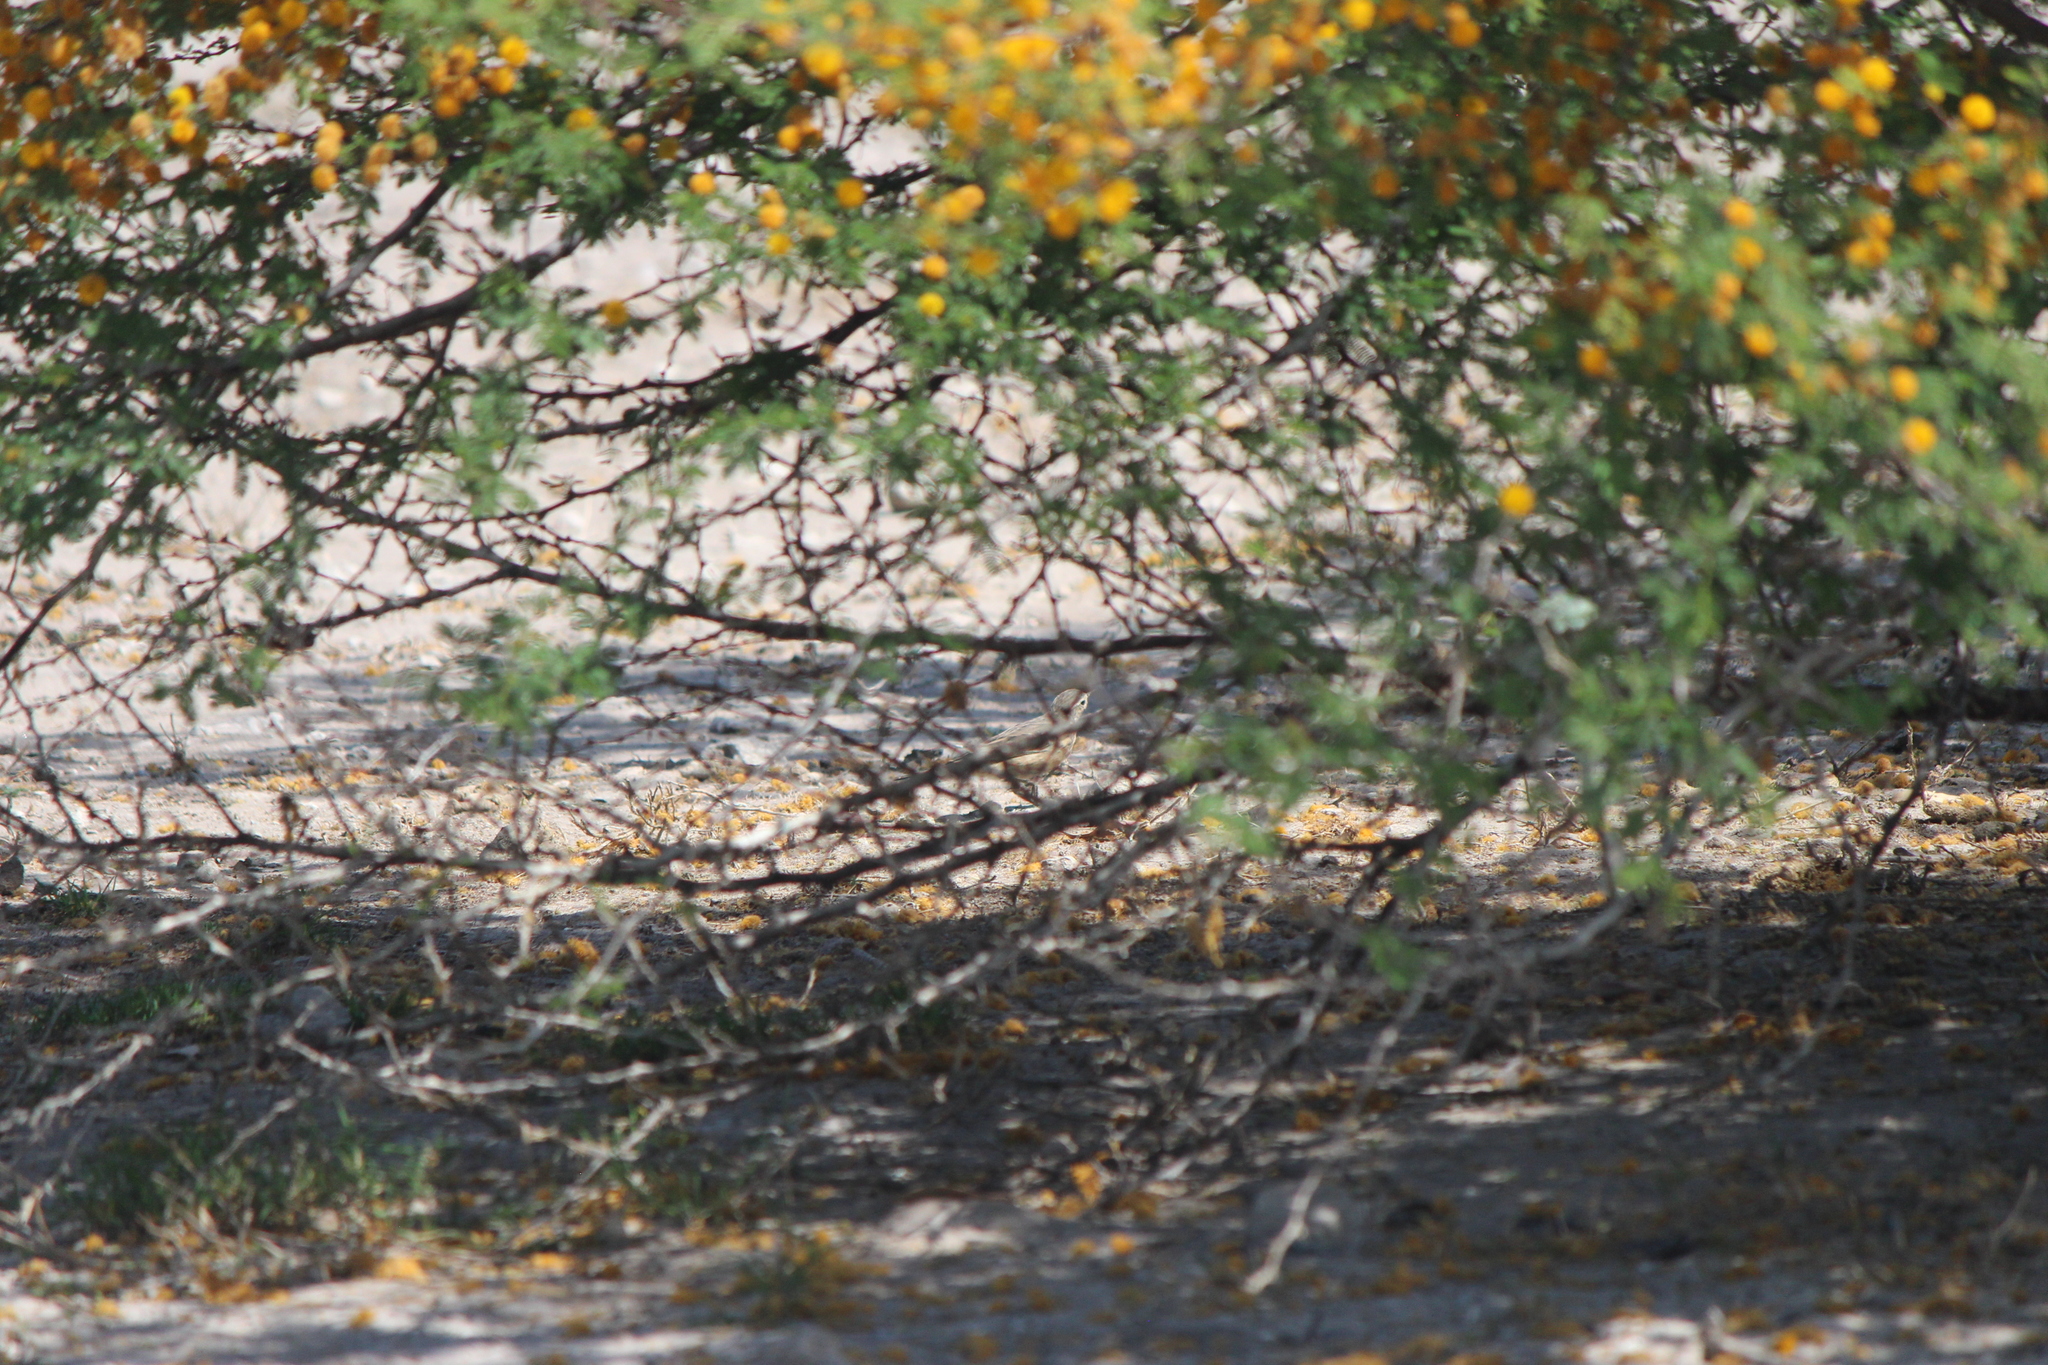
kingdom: Animalia
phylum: Chordata
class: Aves
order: Passeriformes
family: Motacillidae
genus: Anthus
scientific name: Anthus rubescens
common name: Buff-bellied pipit
